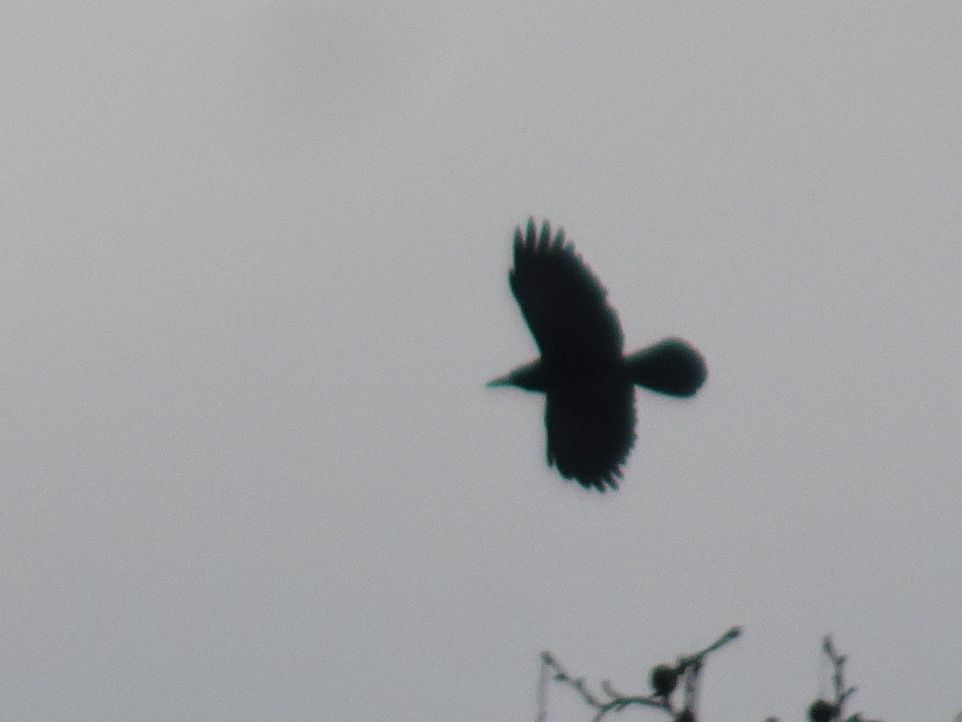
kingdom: Animalia
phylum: Chordata
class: Aves
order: Passeriformes
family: Corvidae
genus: Corvus
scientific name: Corvus frugilegus
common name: Rook
